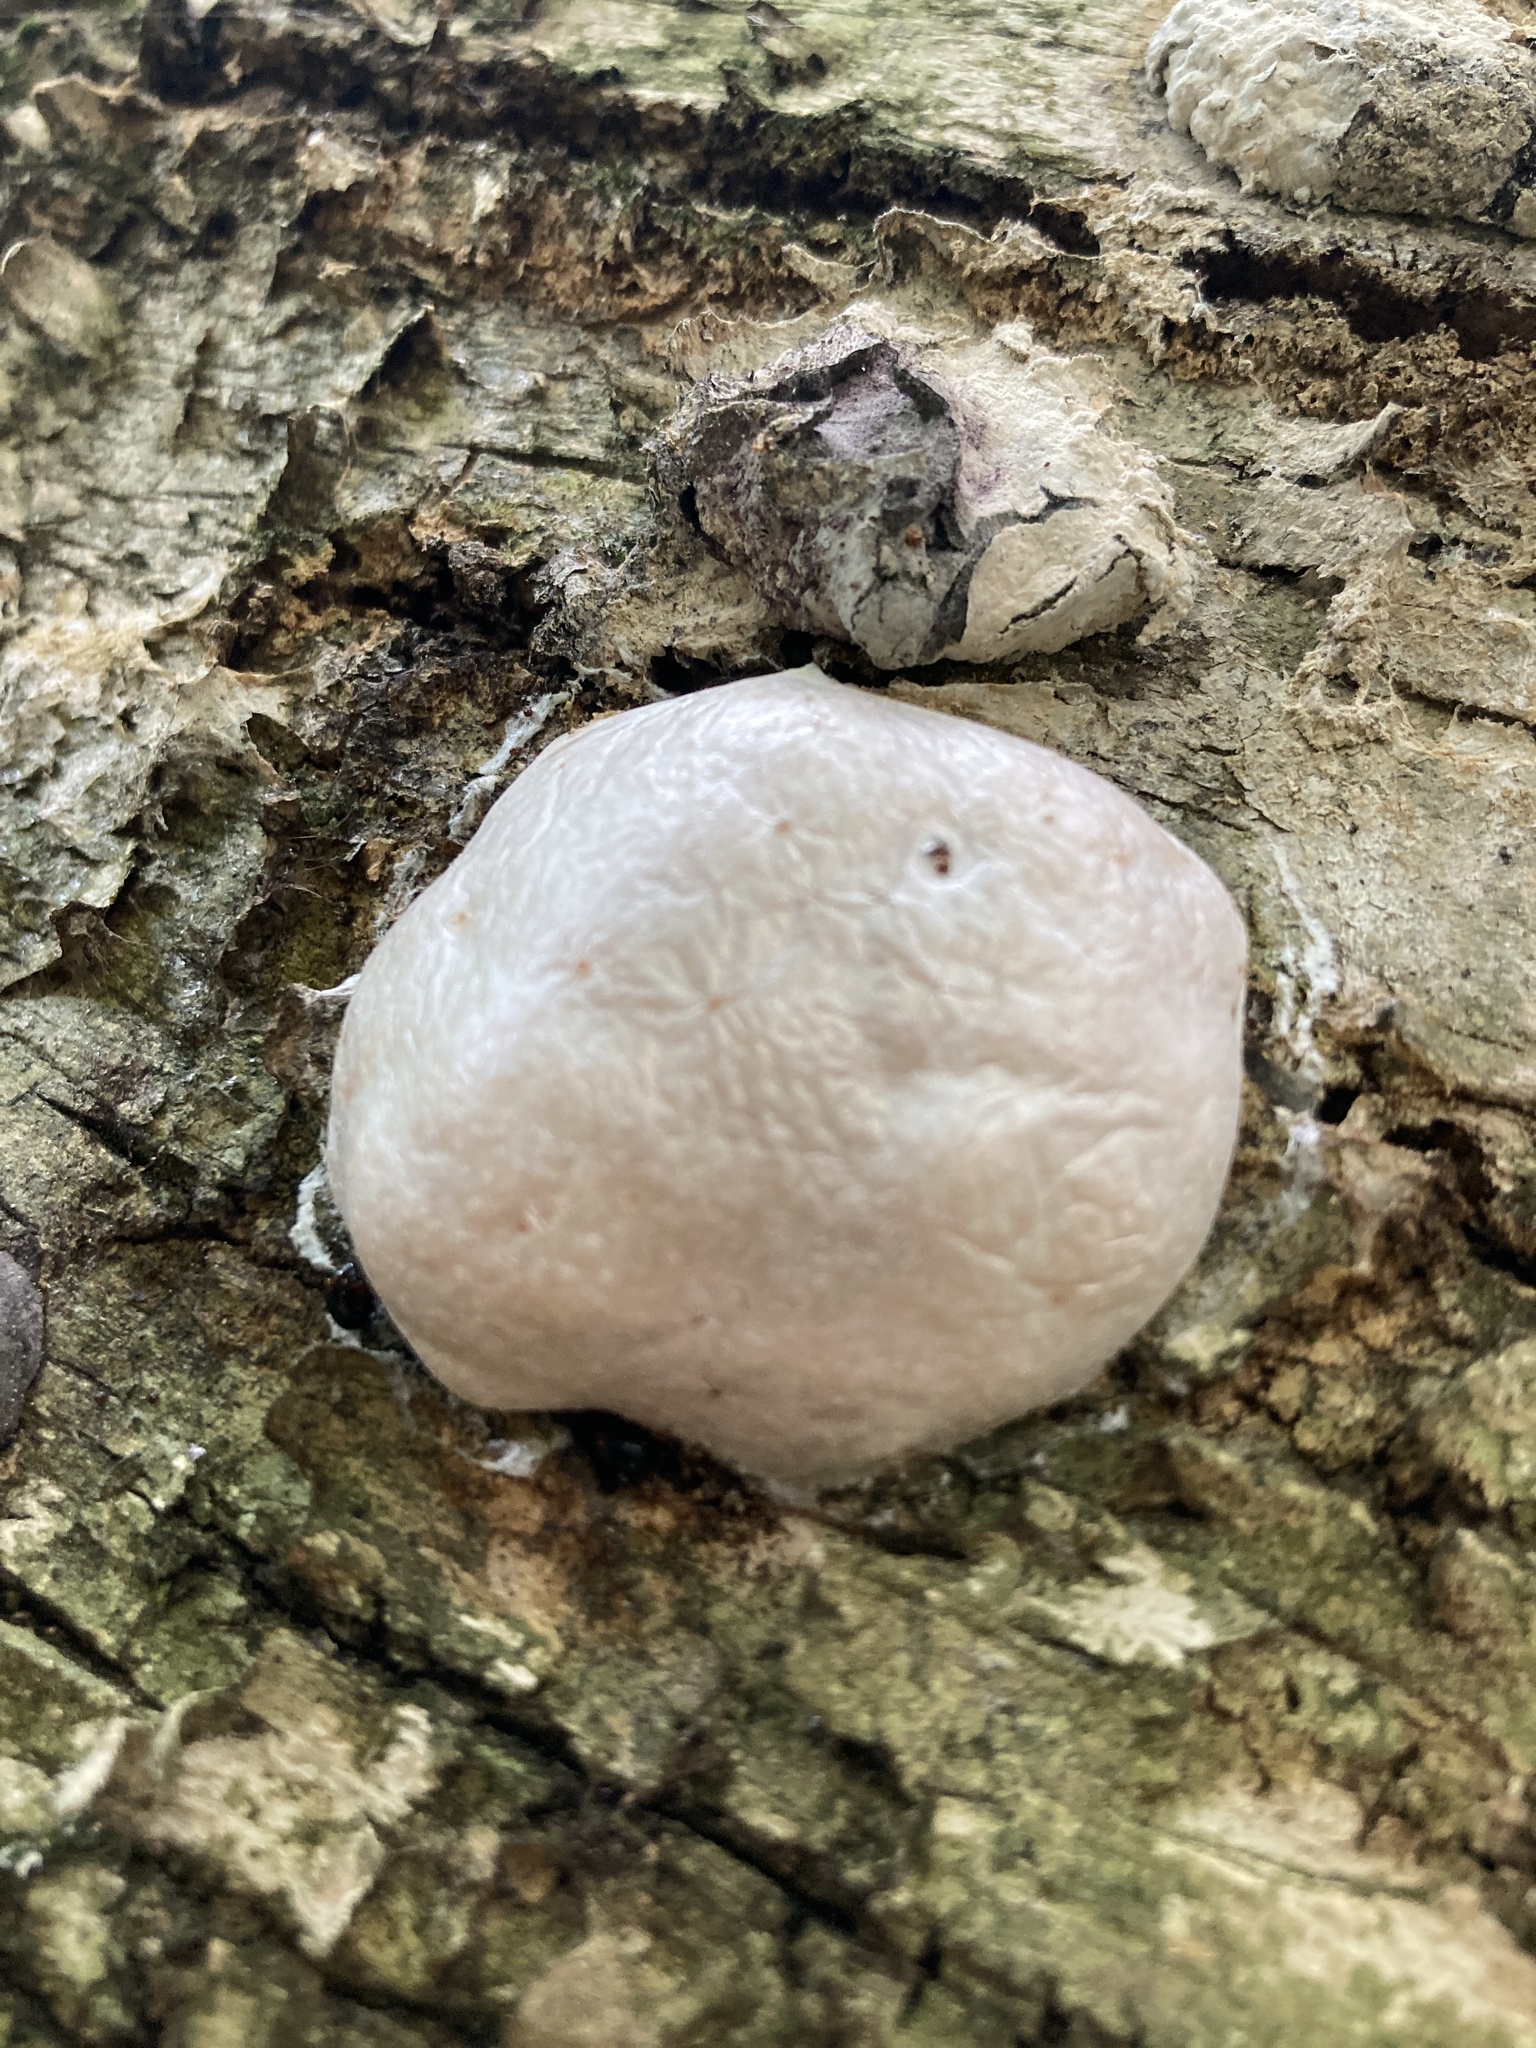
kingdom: Protozoa
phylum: Mycetozoa
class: Myxomycetes
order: Cribrariales
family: Tubiferaceae
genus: Reticularia
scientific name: Reticularia lycoperdon
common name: False puffball
